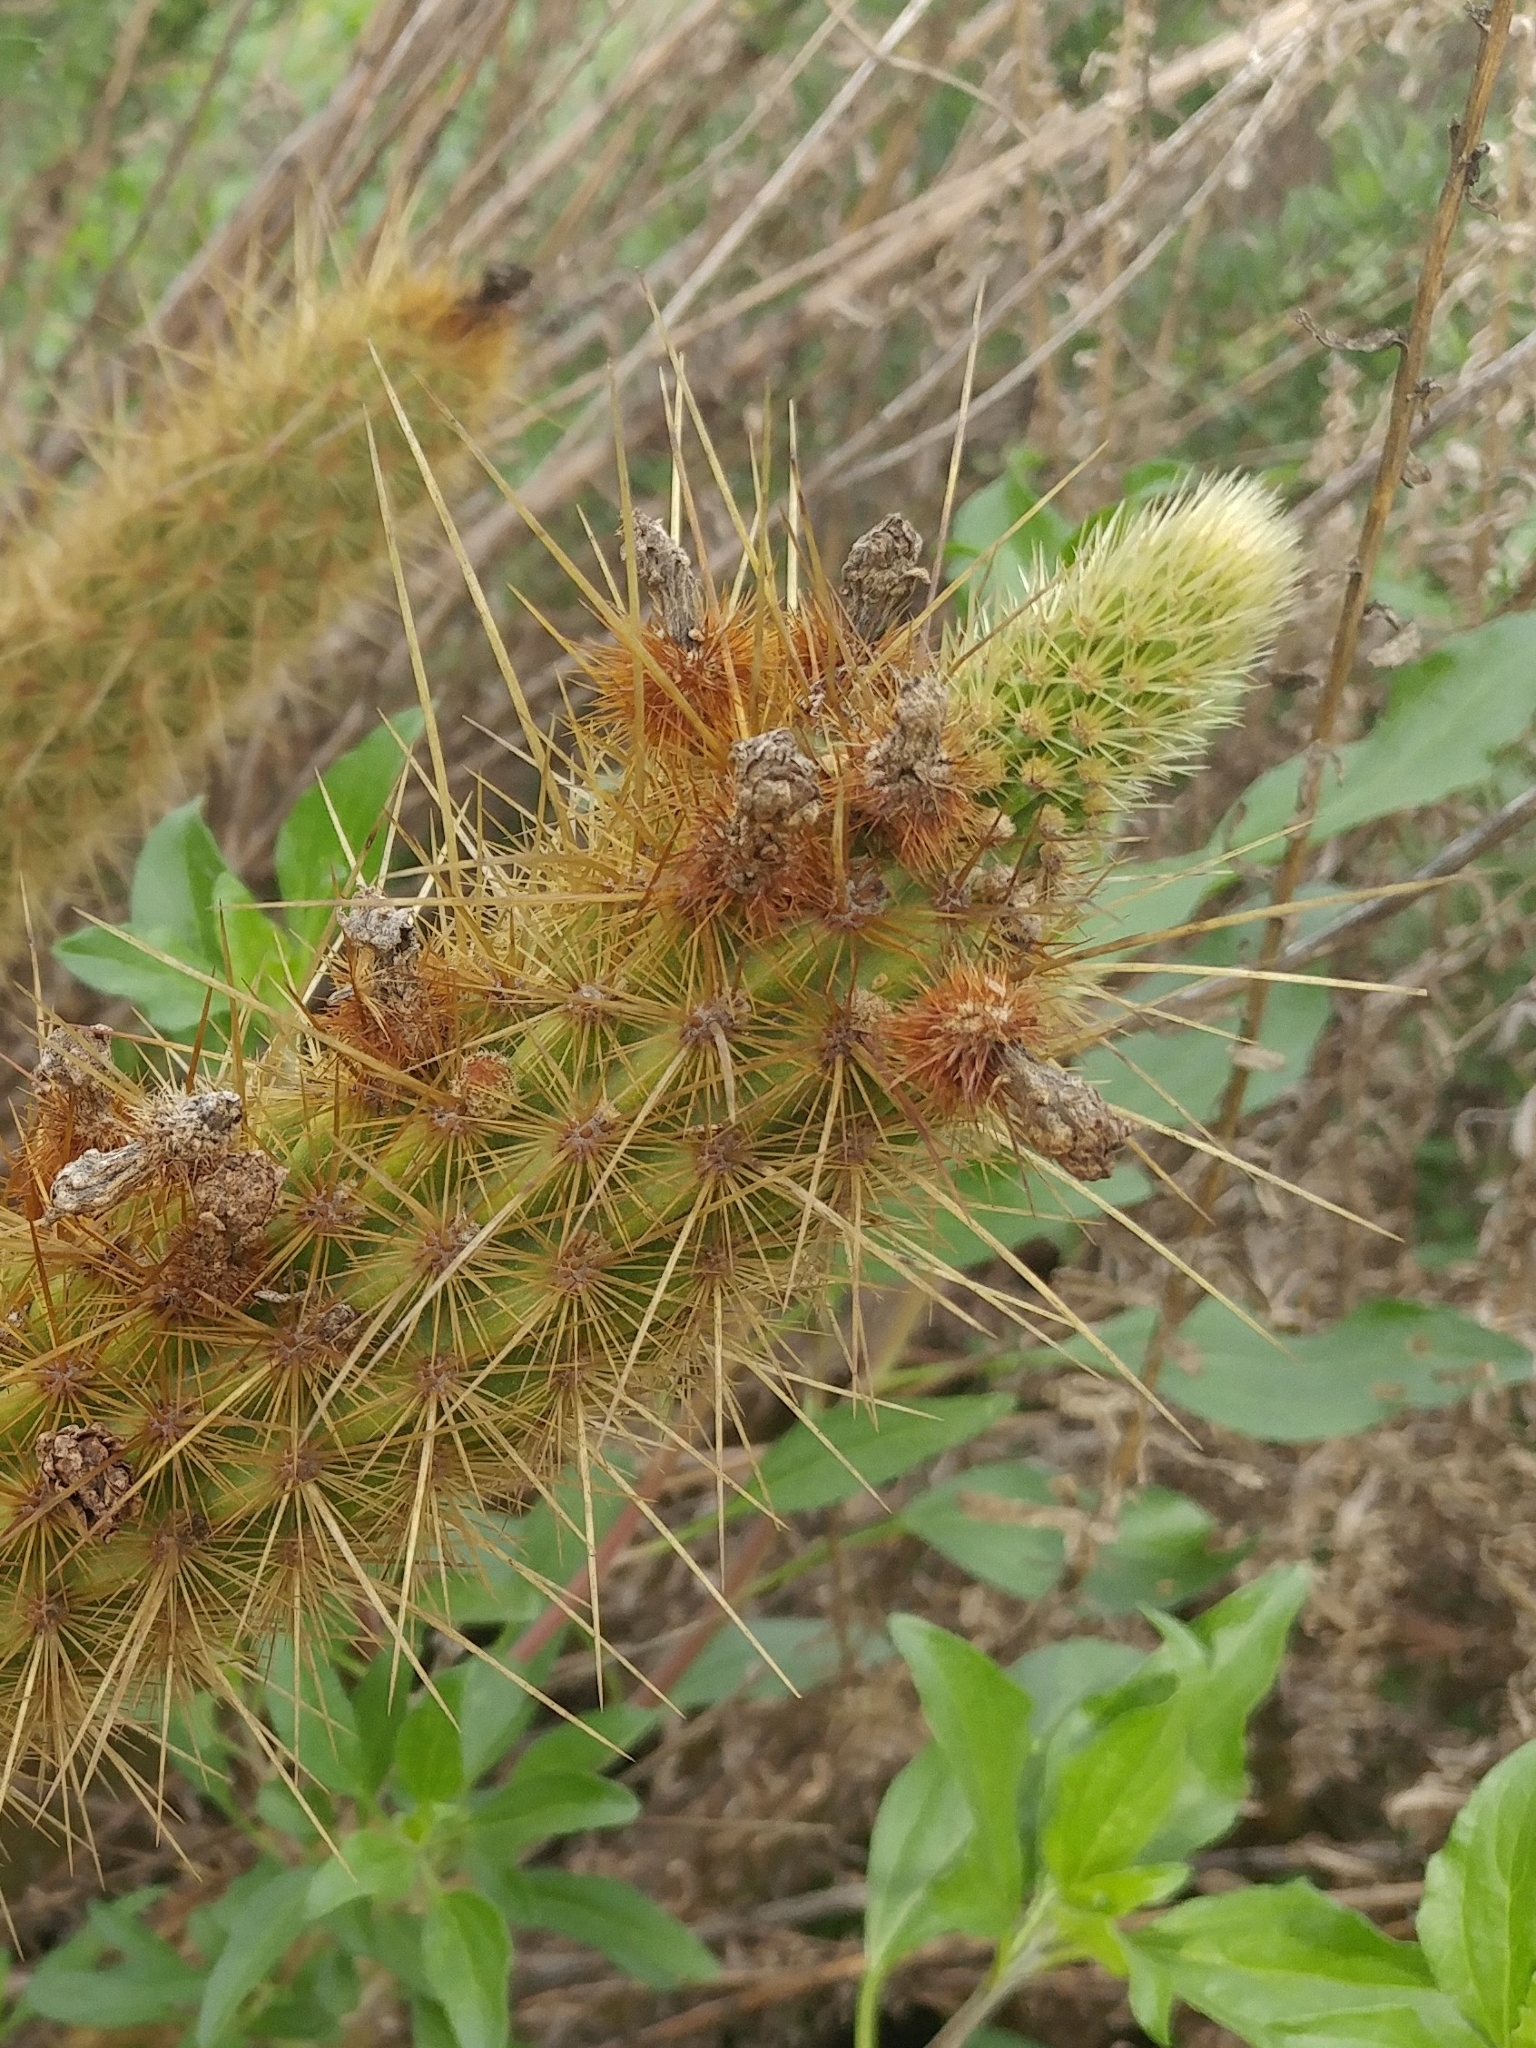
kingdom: Plantae
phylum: Tracheophyta
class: Magnoliopsida
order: Caryophyllales
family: Cactaceae
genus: Bergerocactus
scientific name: Bergerocactus emoryi
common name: Golden snakecactus
